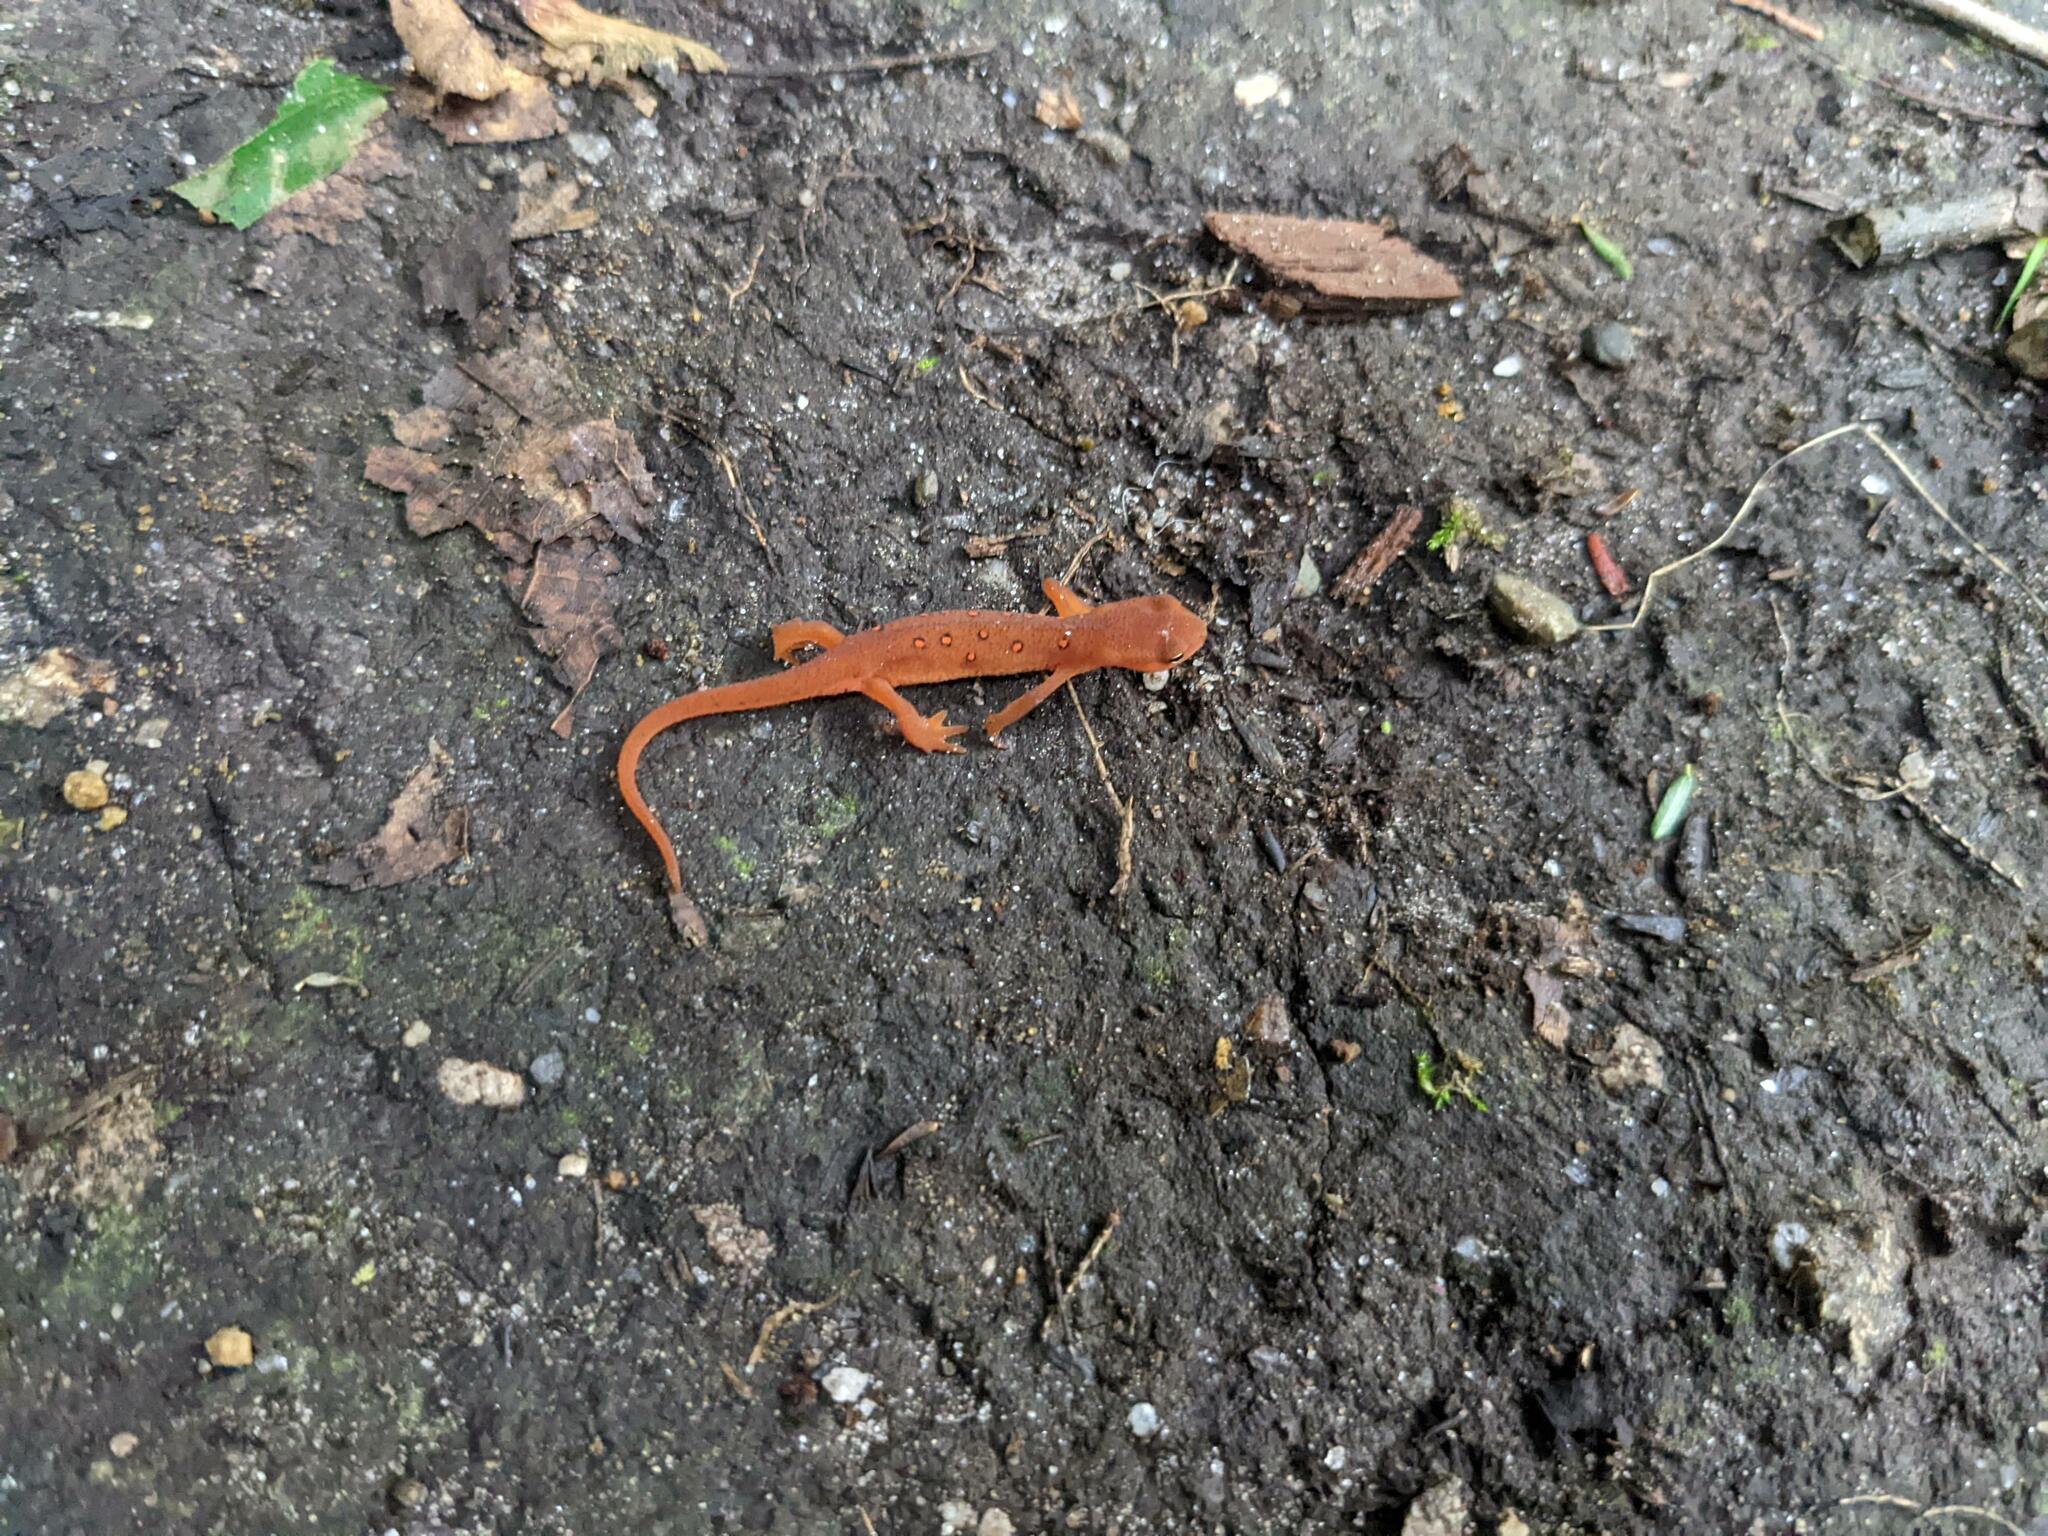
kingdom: Animalia
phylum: Chordata
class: Amphibia
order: Caudata
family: Salamandridae
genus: Notophthalmus
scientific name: Notophthalmus viridescens
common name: Eastern newt
